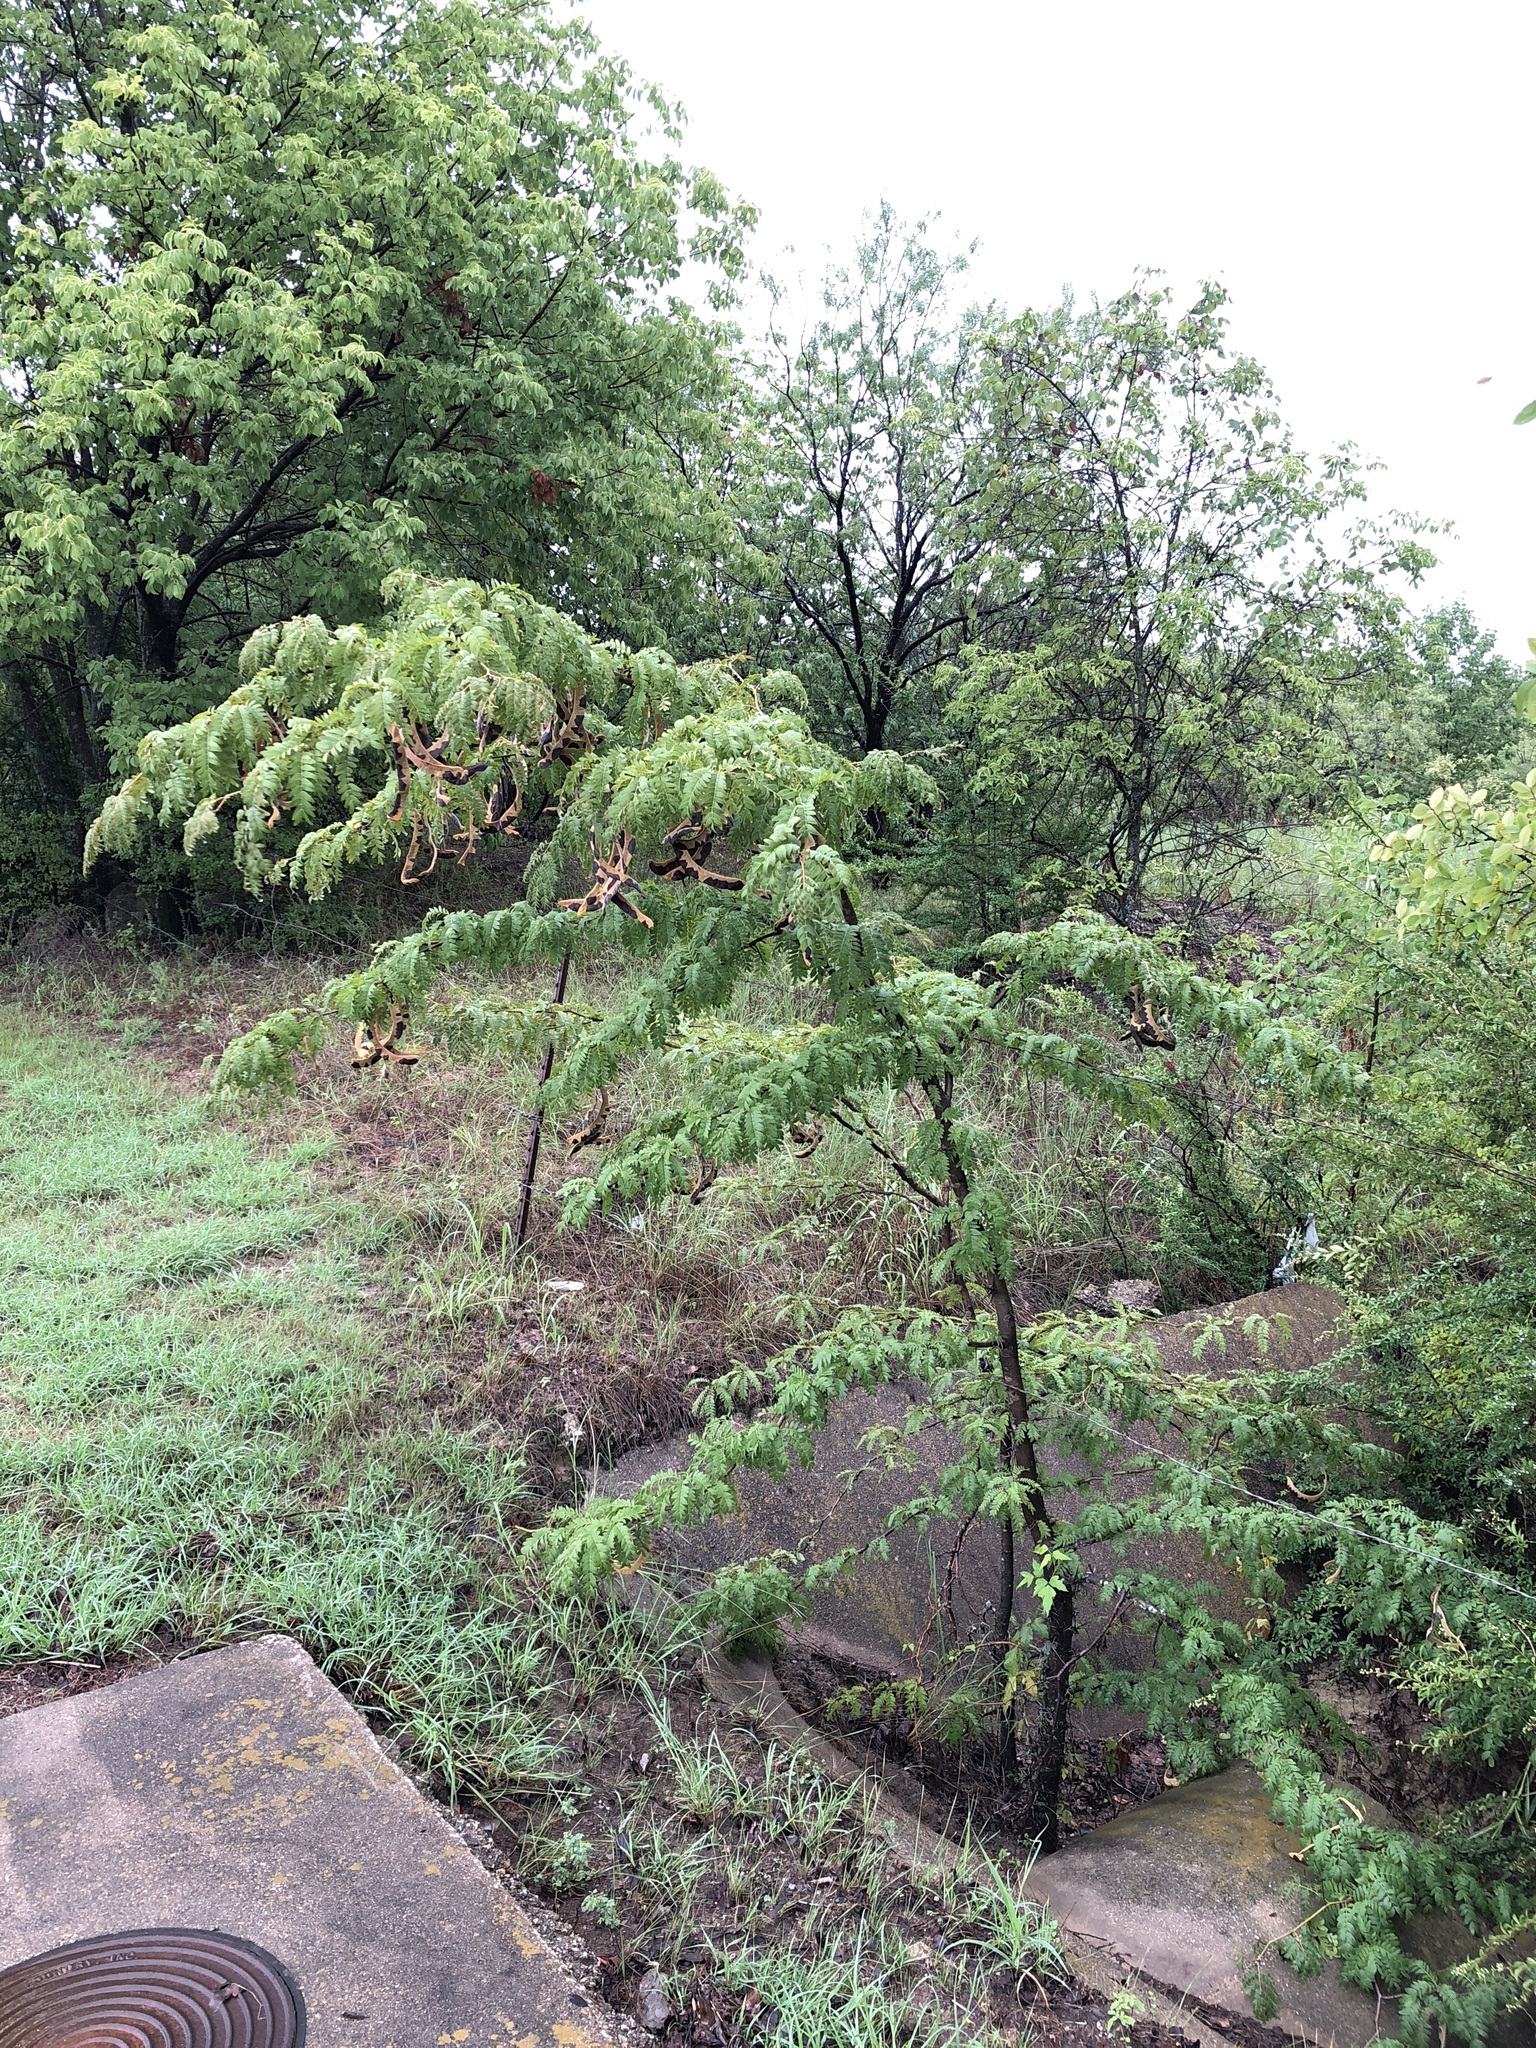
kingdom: Plantae
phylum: Tracheophyta
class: Magnoliopsida
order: Fabales
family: Fabaceae
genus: Gleditsia
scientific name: Gleditsia triacanthos
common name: Common honeylocust
